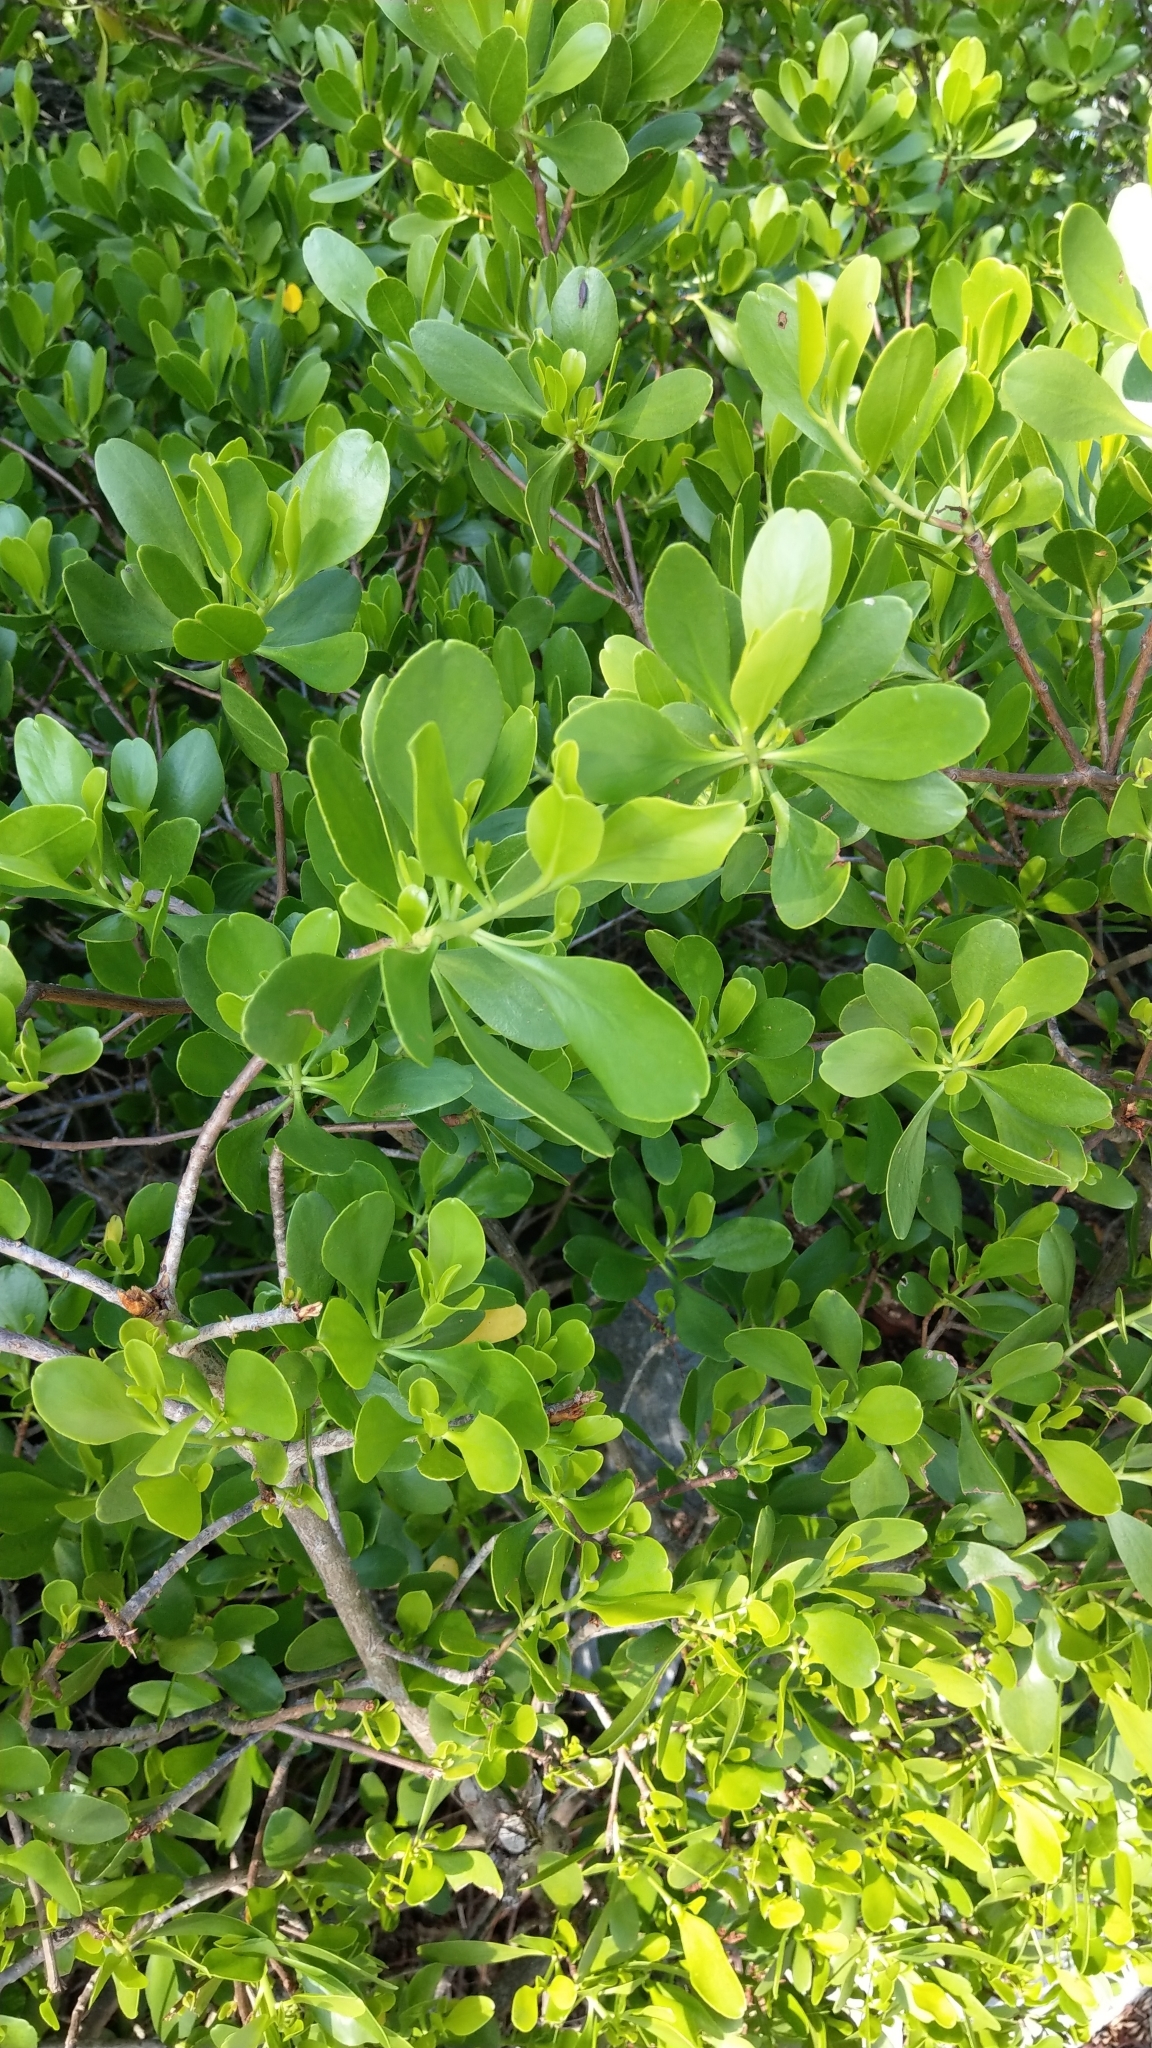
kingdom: Plantae
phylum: Tracheophyta
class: Magnoliopsida
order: Myrtales
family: Combretaceae
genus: Lumnitzera
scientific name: Lumnitzera racemosa
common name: White-flowered black mangrove
